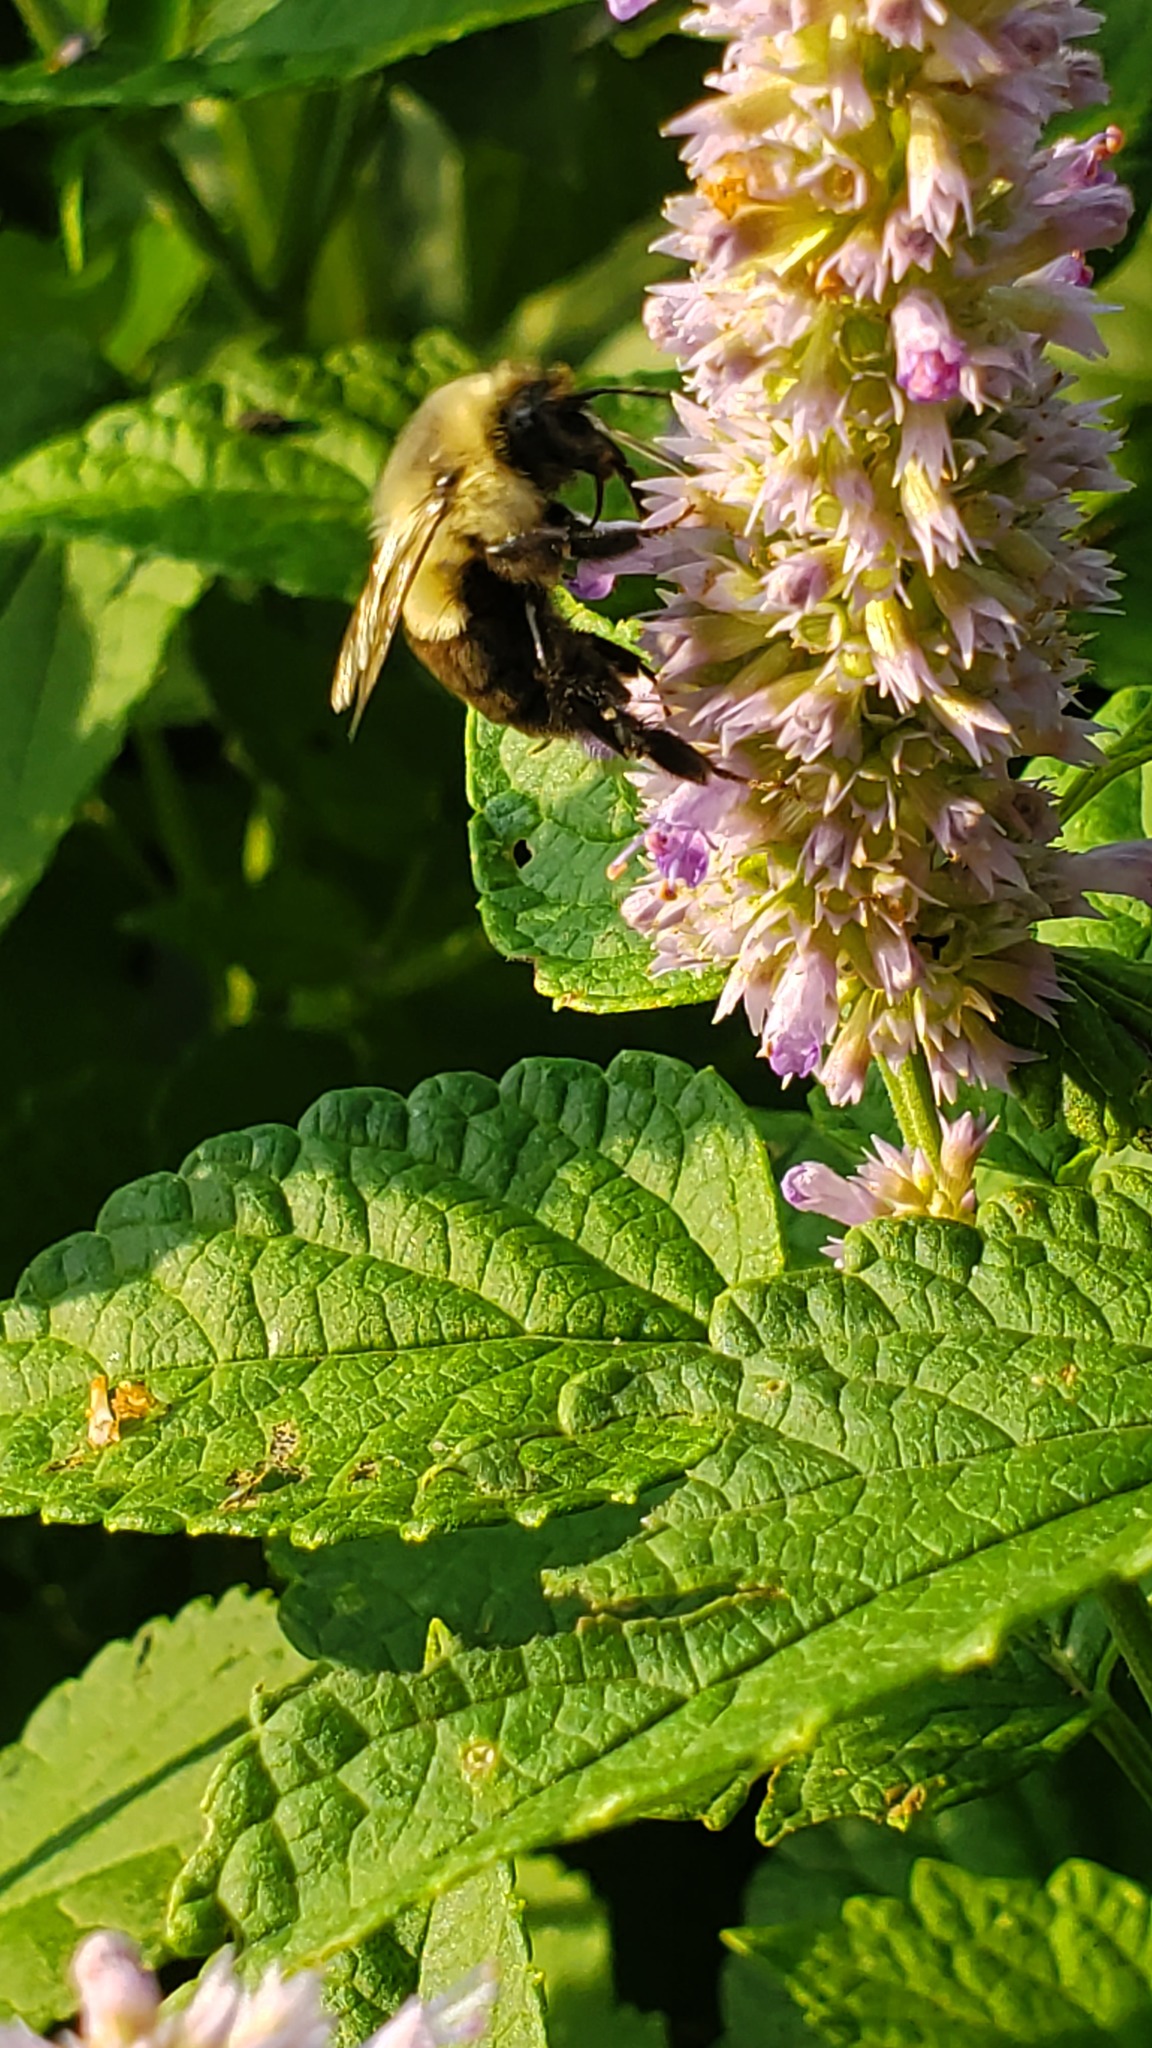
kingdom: Animalia
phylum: Arthropoda
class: Insecta
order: Hymenoptera
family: Apidae
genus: Bombus
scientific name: Bombus impatiens
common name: Common eastern bumble bee
